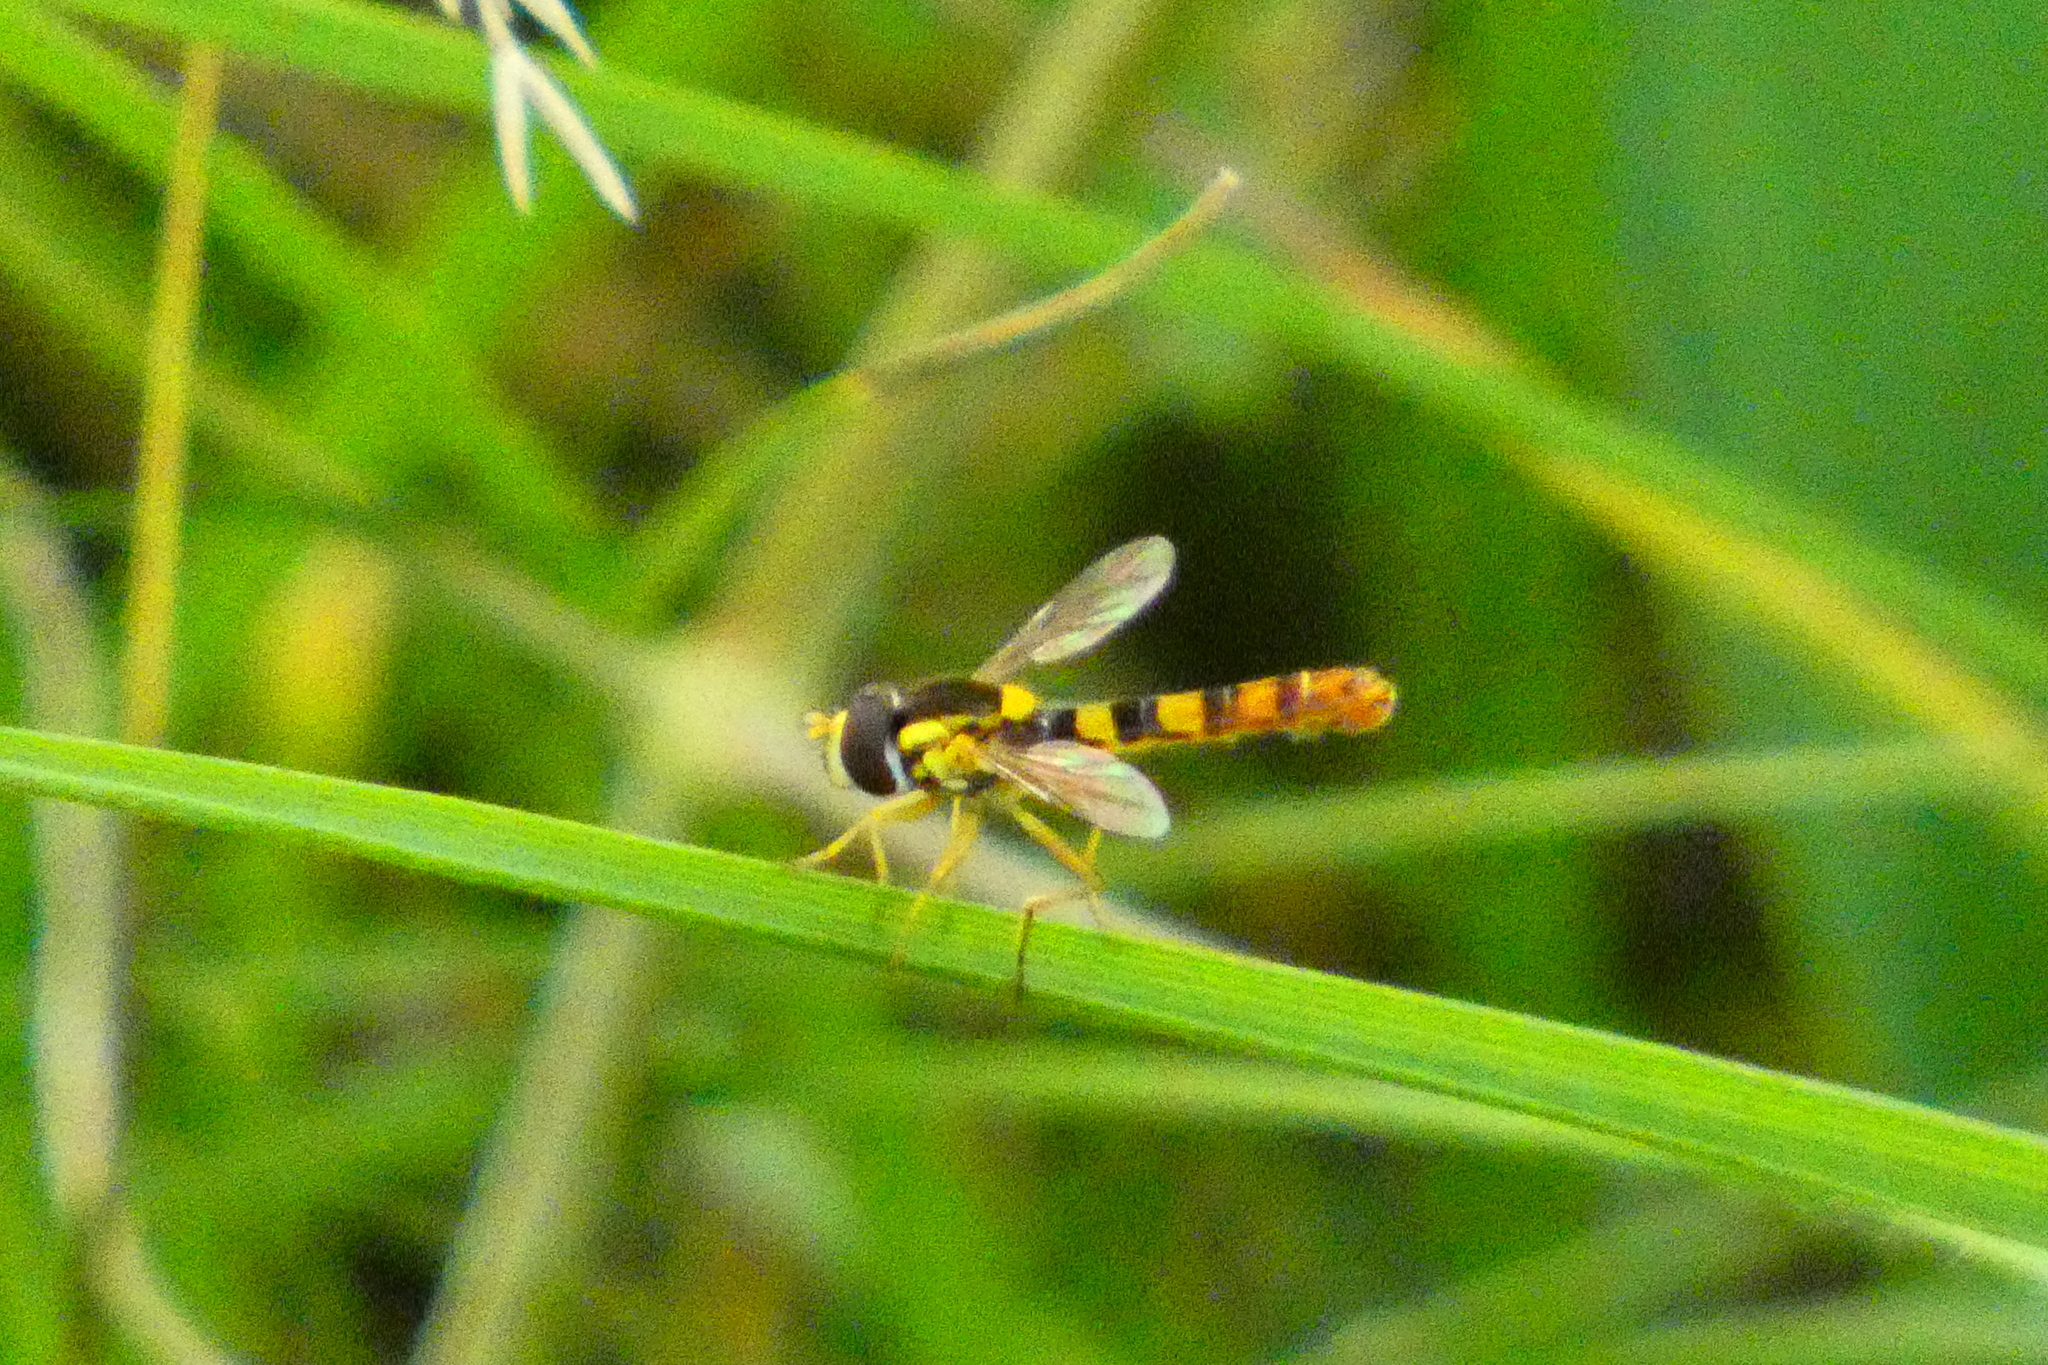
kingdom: Animalia
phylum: Arthropoda
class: Insecta
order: Diptera
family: Syrphidae
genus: Sphaerophoria
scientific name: Sphaerophoria scripta
